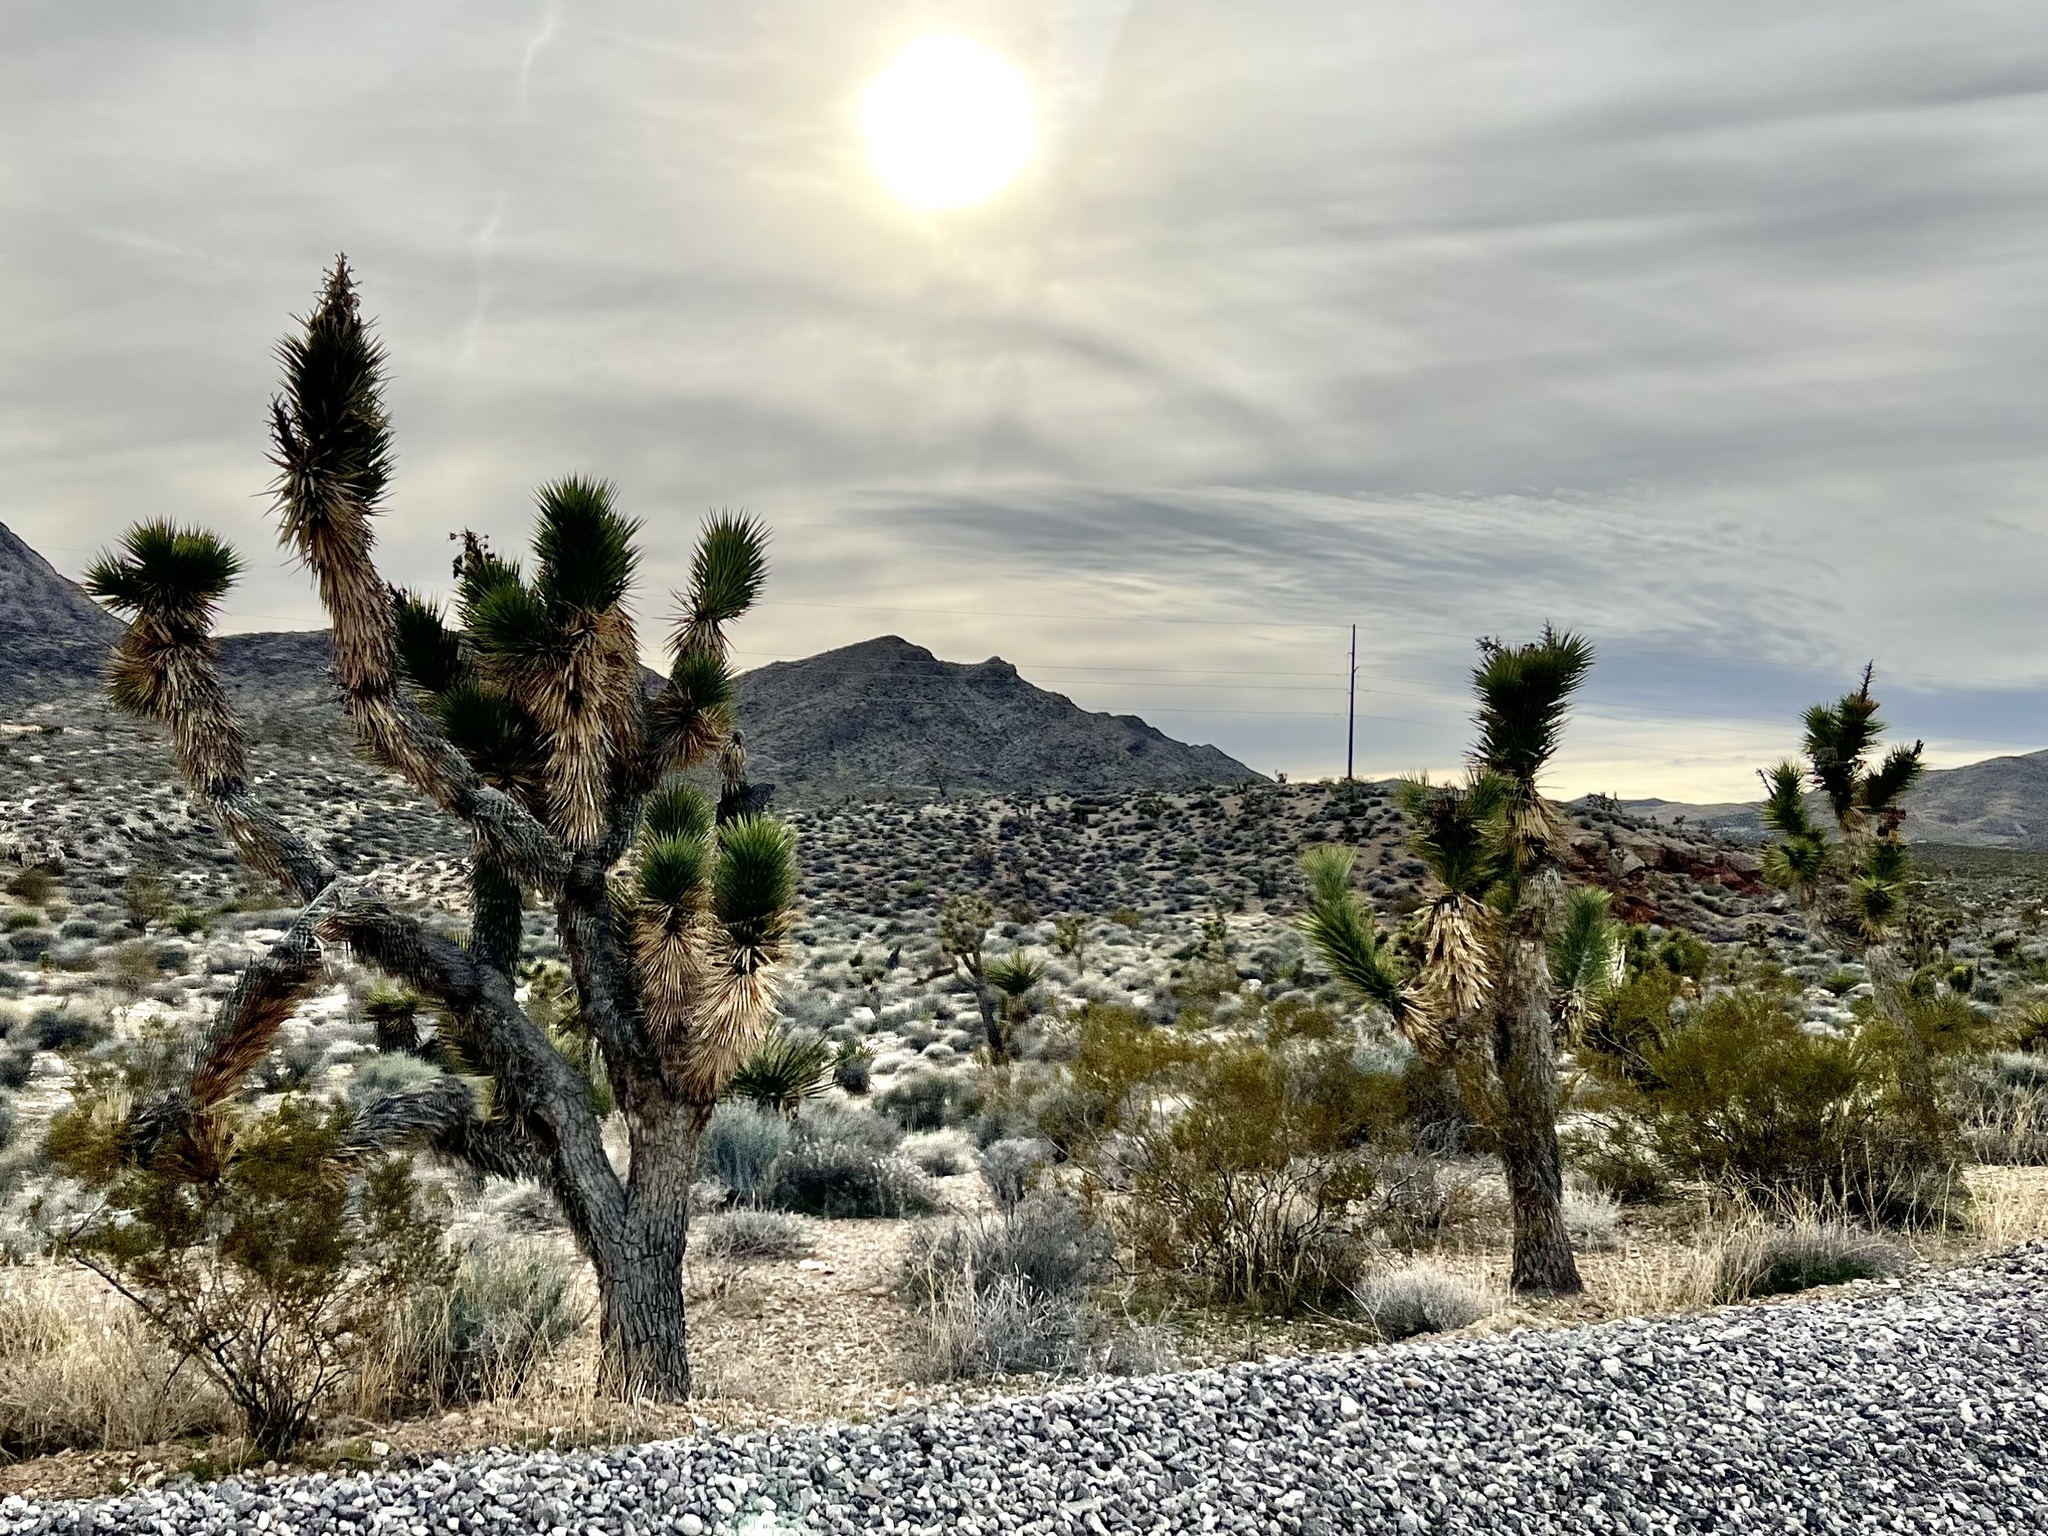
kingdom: Plantae
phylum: Tracheophyta
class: Liliopsida
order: Asparagales
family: Asparagaceae
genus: Yucca
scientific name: Yucca brevifolia
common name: Joshua tree
